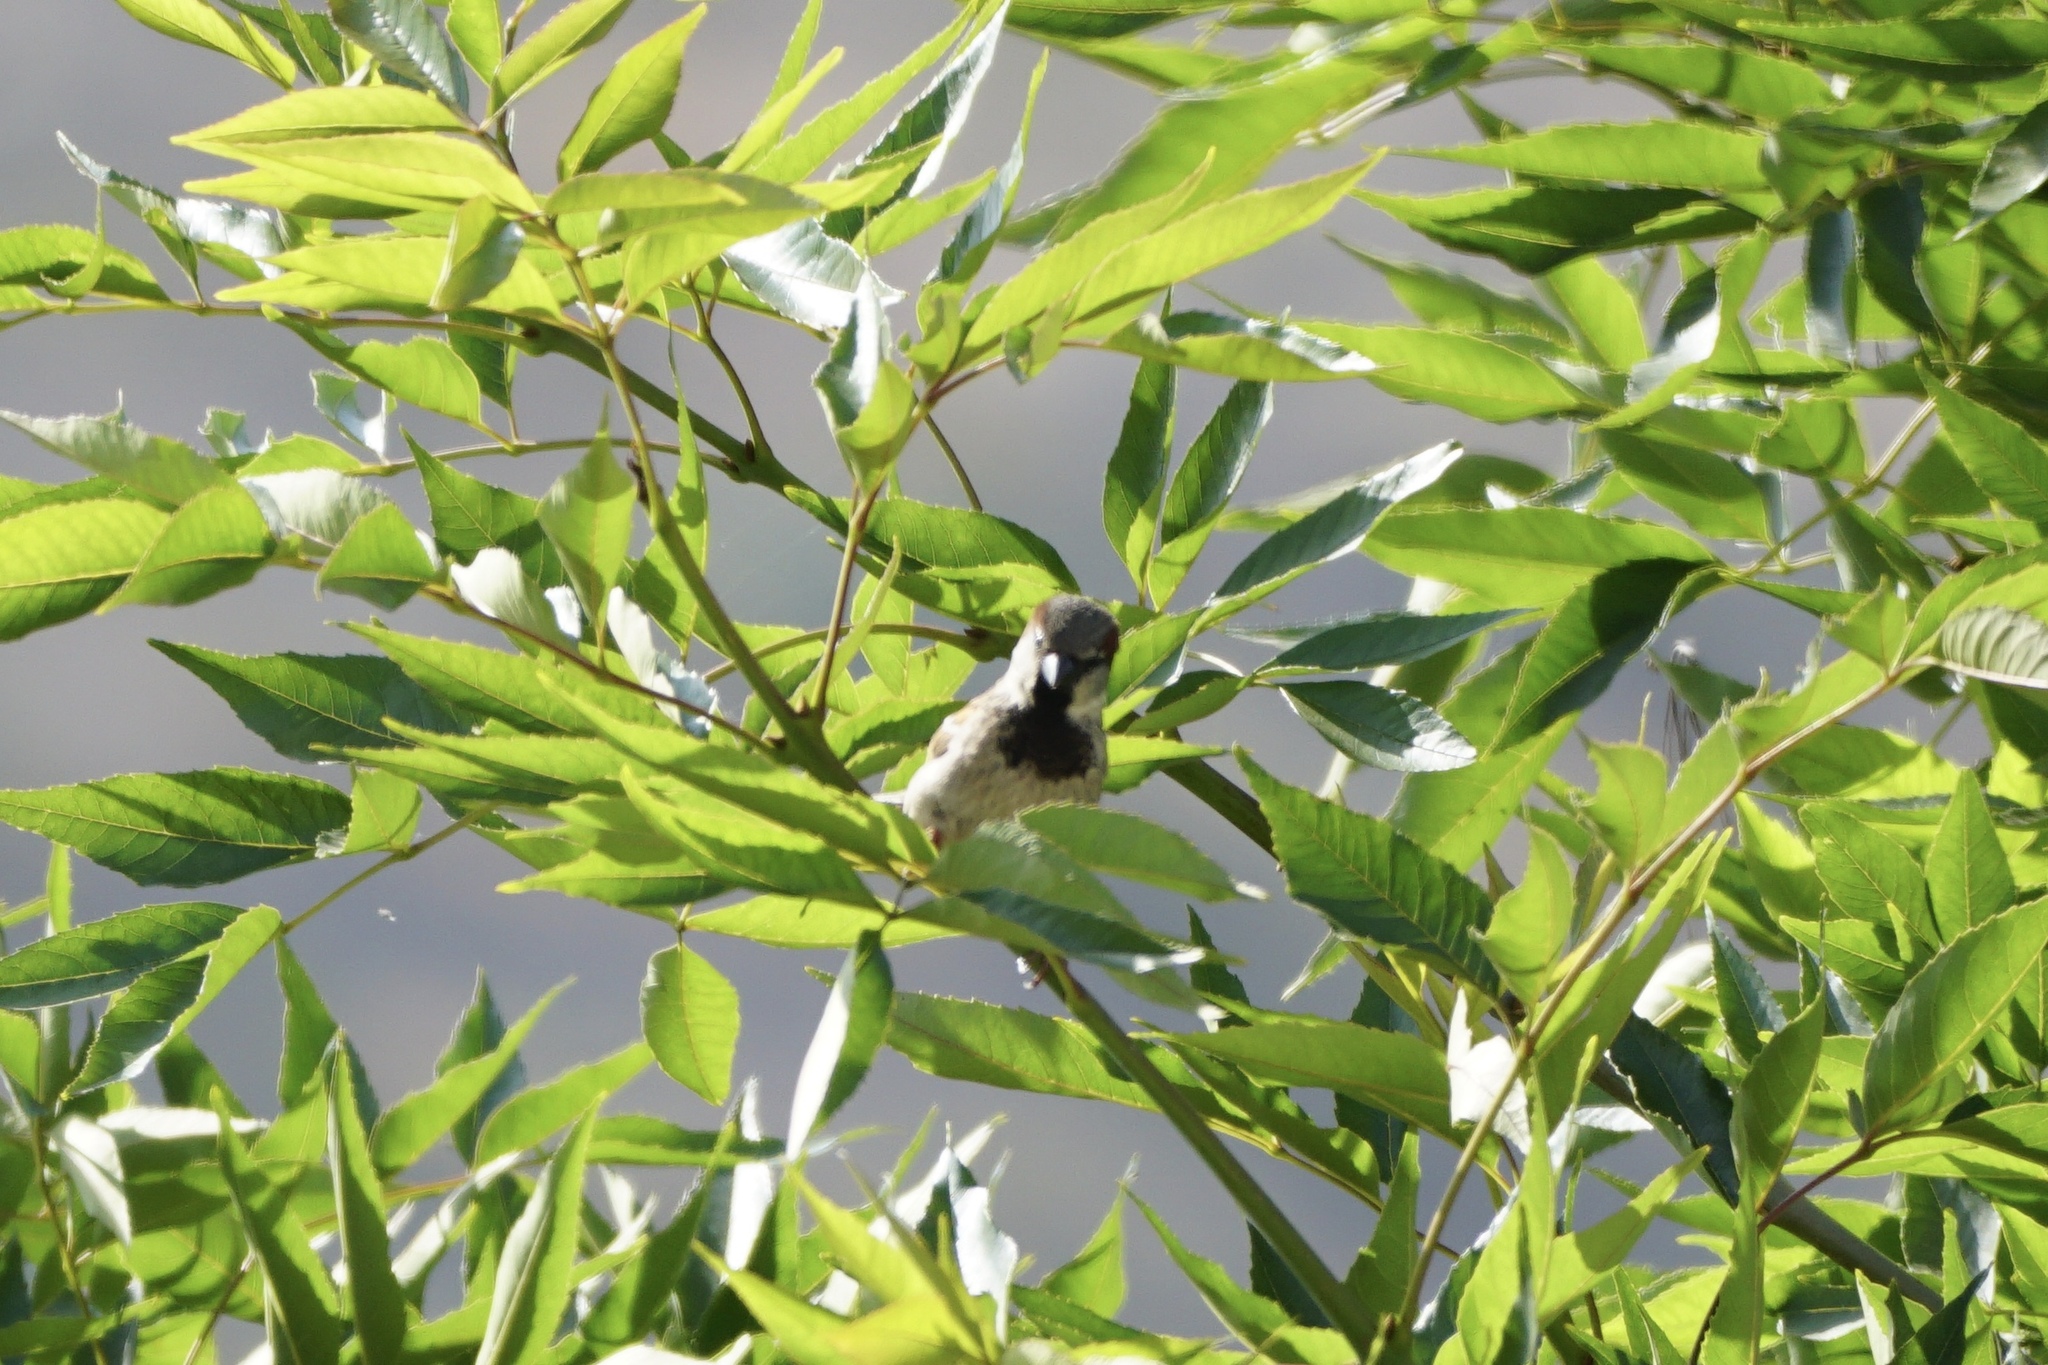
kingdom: Animalia
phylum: Chordata
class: Aves
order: Passeriformes
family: Passeridae
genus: Passer
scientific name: Passer domesticus
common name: House sparrow
